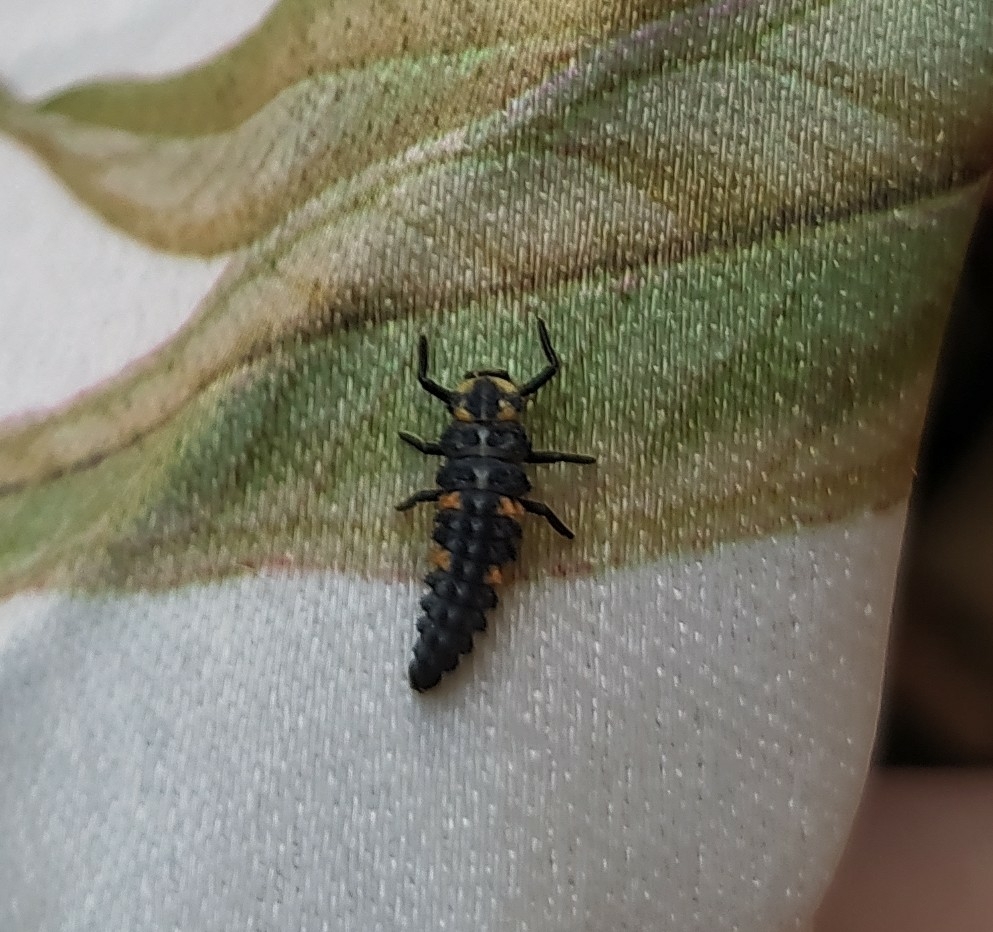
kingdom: Animalia
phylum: Arthropoda
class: Insecta
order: Coleoptera
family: Coccinellidae
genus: Coccinella
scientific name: Coccinella septempunctata
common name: Sevenspotted lady beetle
